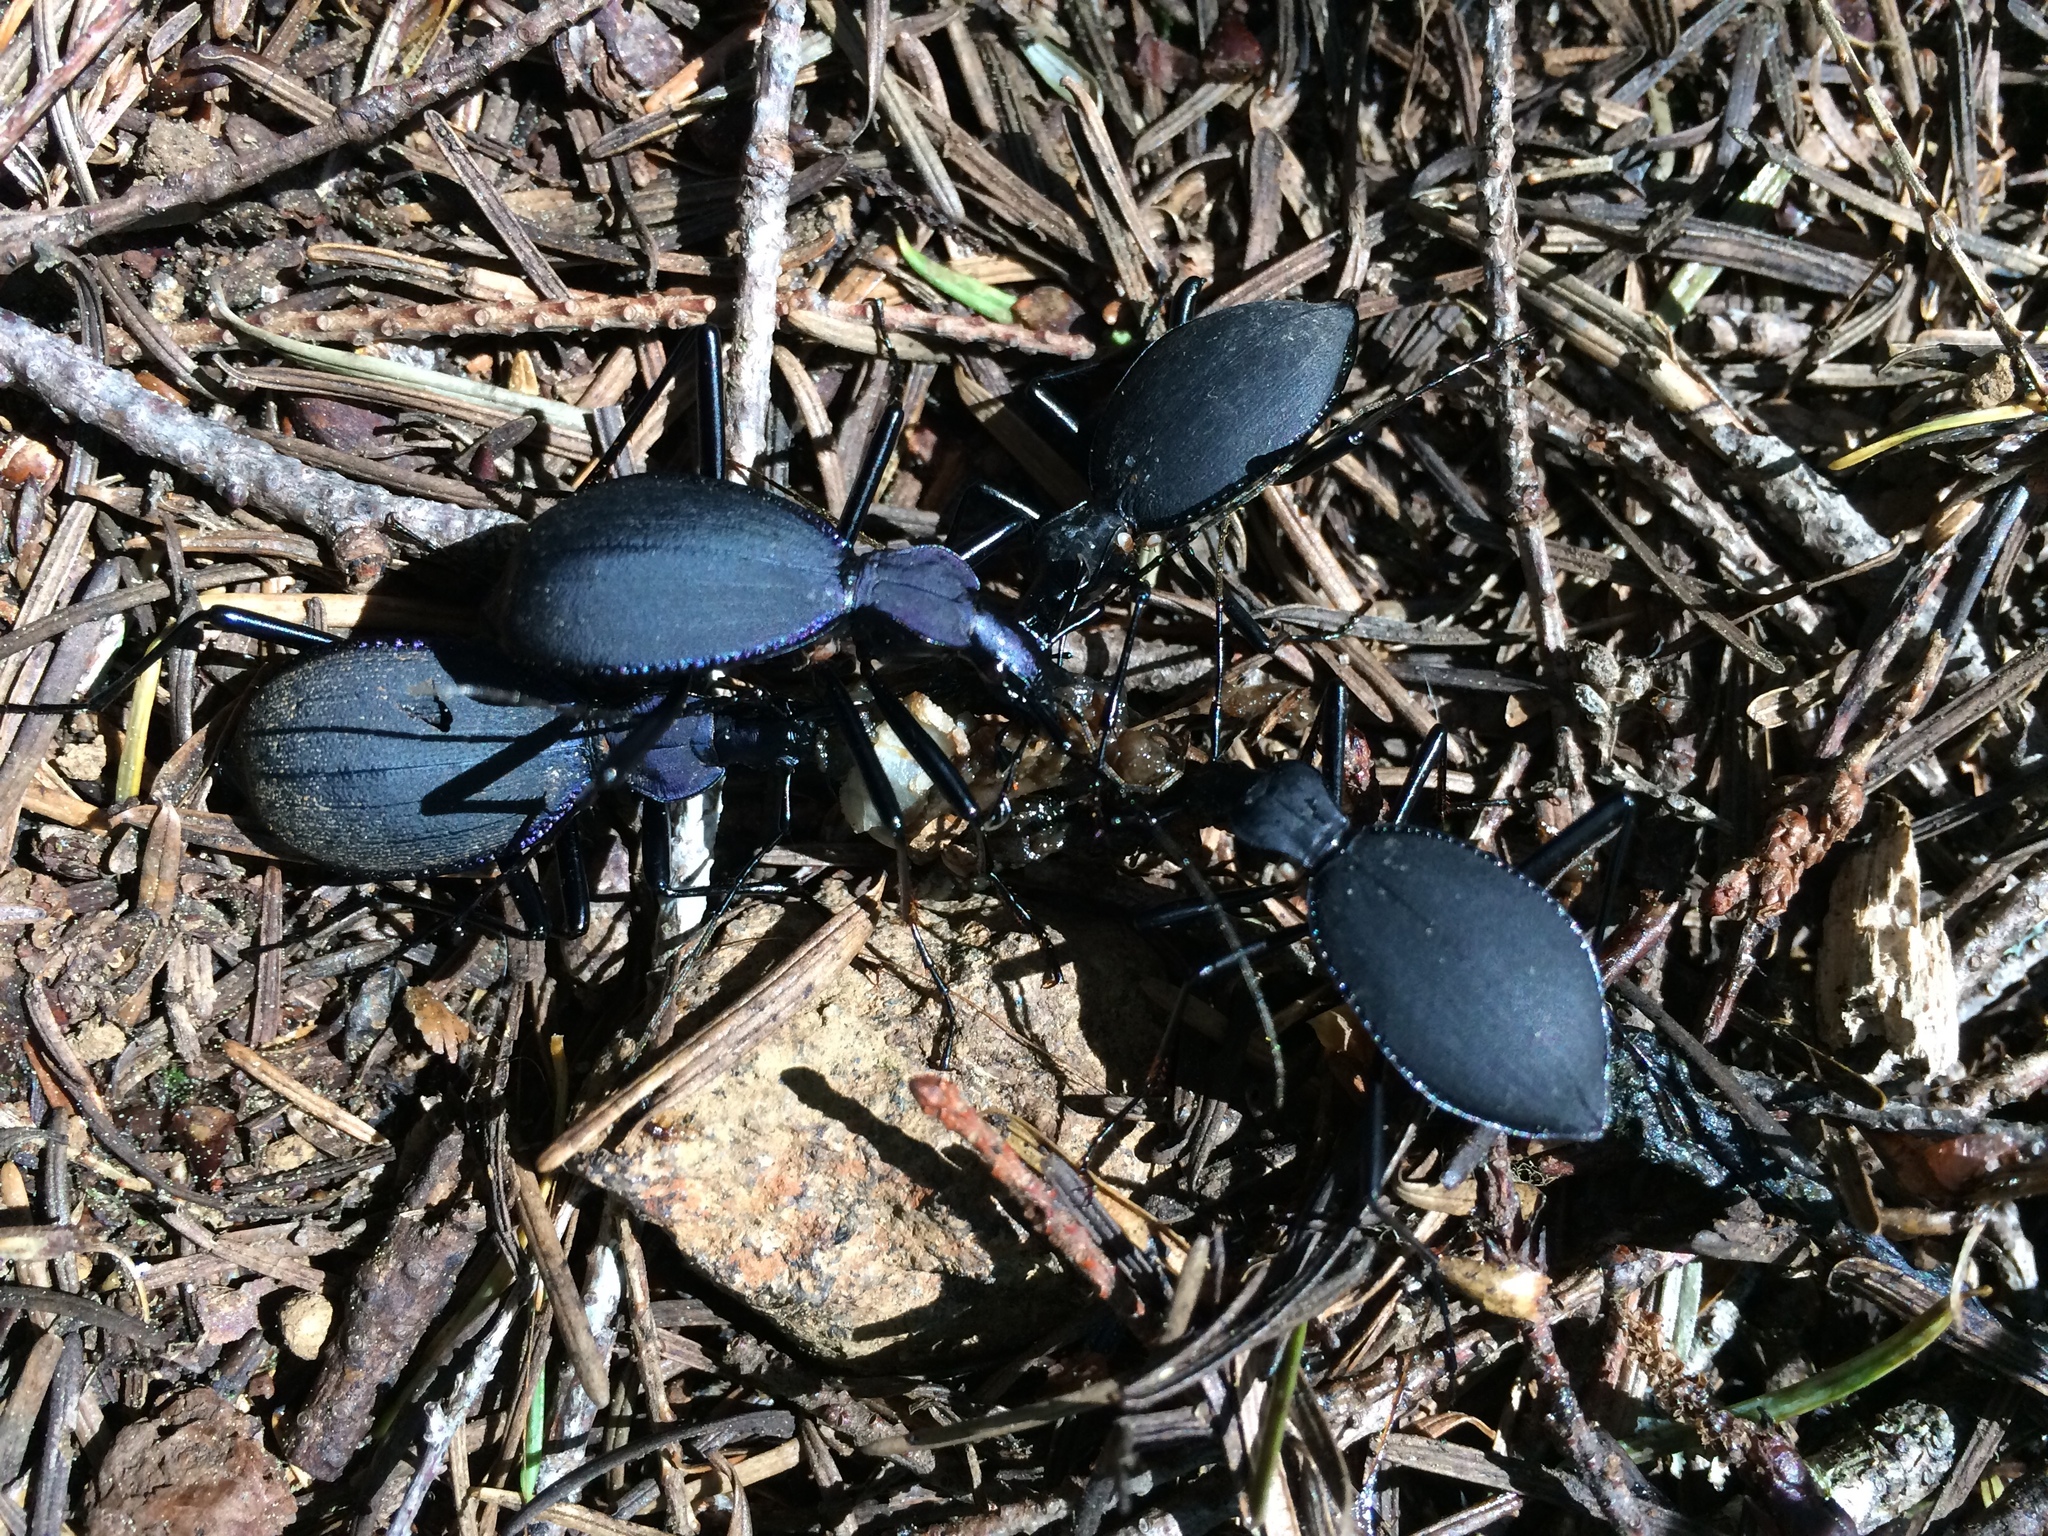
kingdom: Animalia
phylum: Arthropoda
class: Insecta
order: Coleoptera
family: Carabidae
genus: Scaphinotus
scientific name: Scaphinotus velutinus
